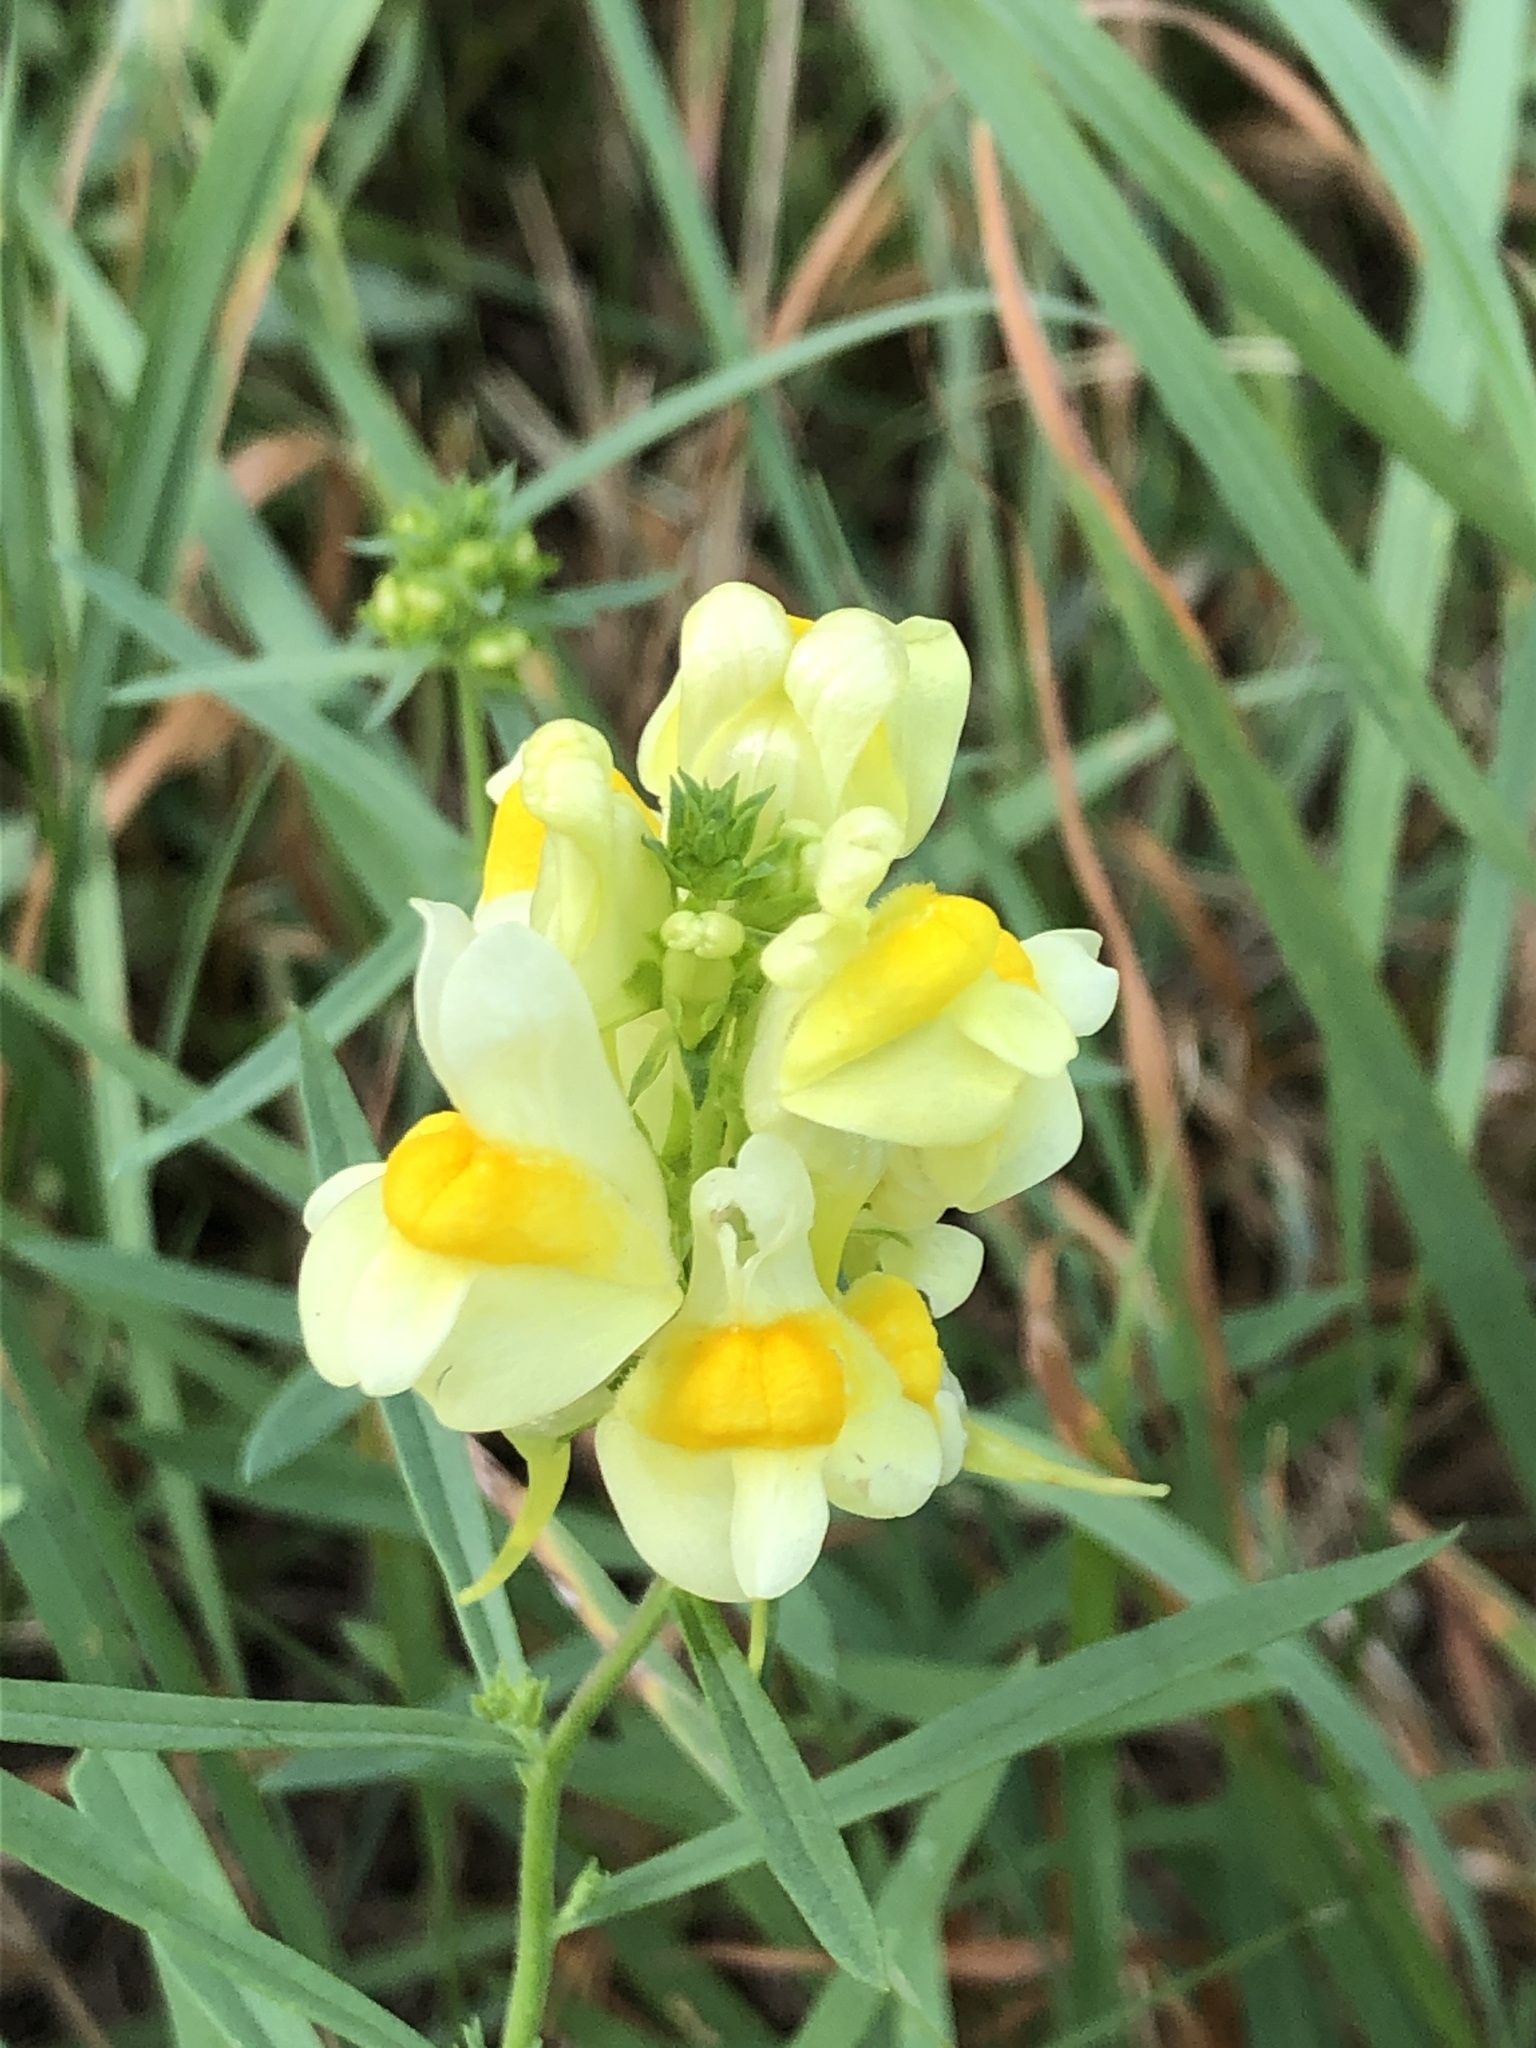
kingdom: Plantae
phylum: Tracheophyta
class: Magnoliopsida
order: Lamiales
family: Plantaginaceae
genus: Linaria
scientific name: Linaria vulgaris
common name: Butter and eggs
